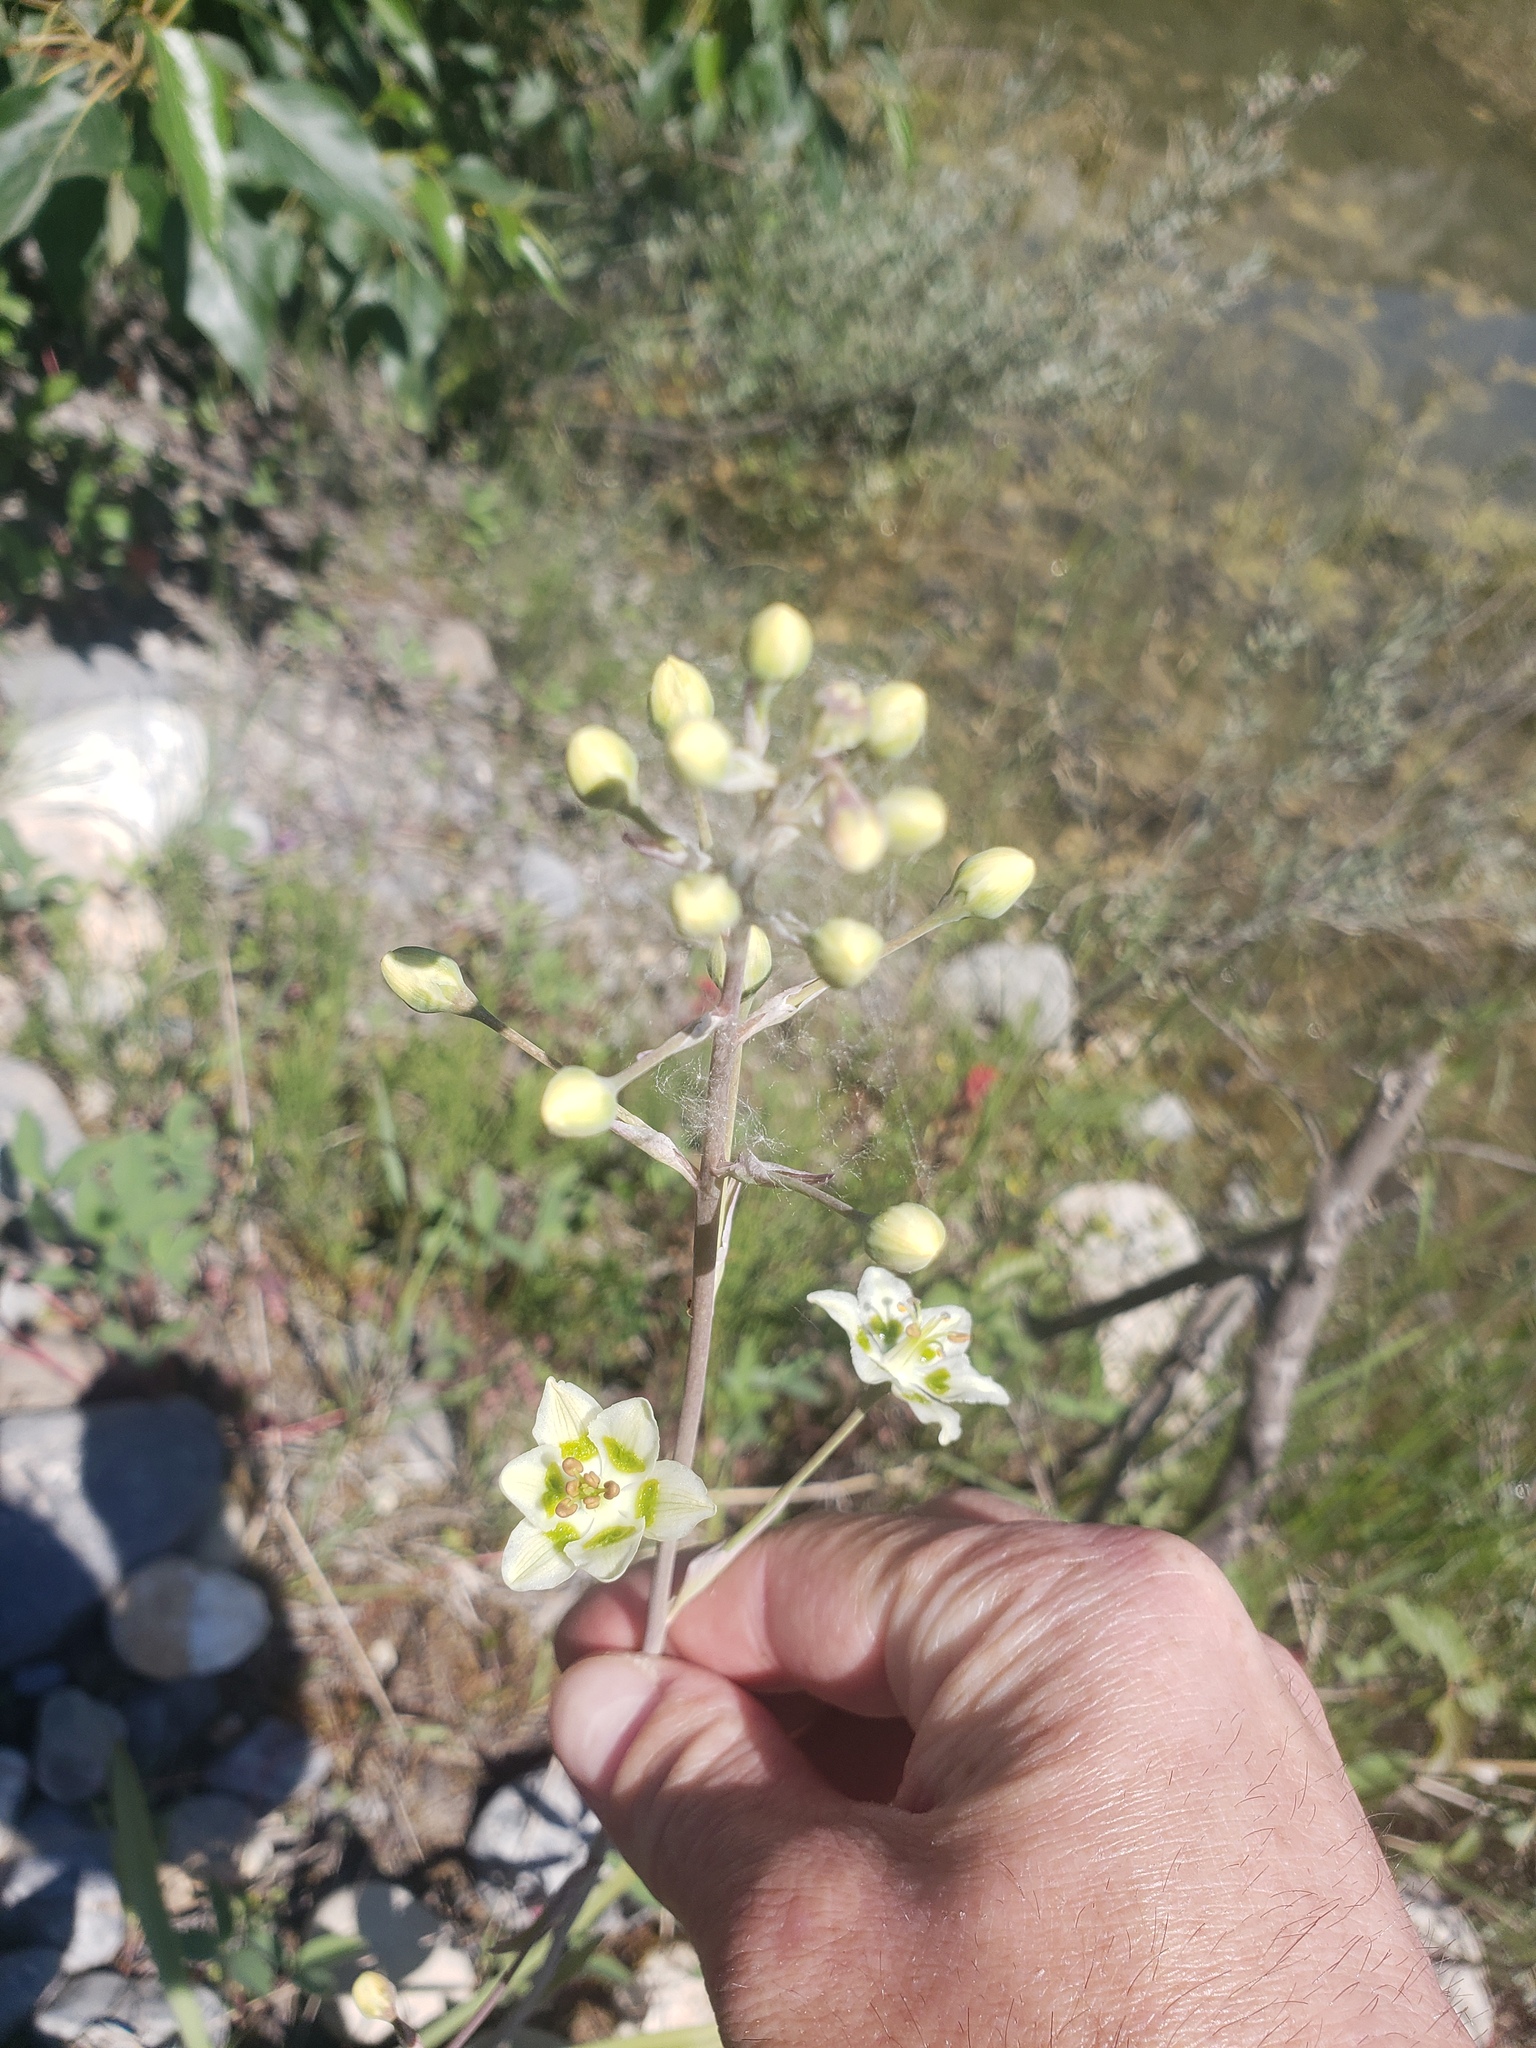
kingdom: Plantae
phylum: Tracheophyta
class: Liliopsida
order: Liliales
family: Melanthiaceae
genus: Anticlea
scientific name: Anticlea elegans
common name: Mountain death camas
